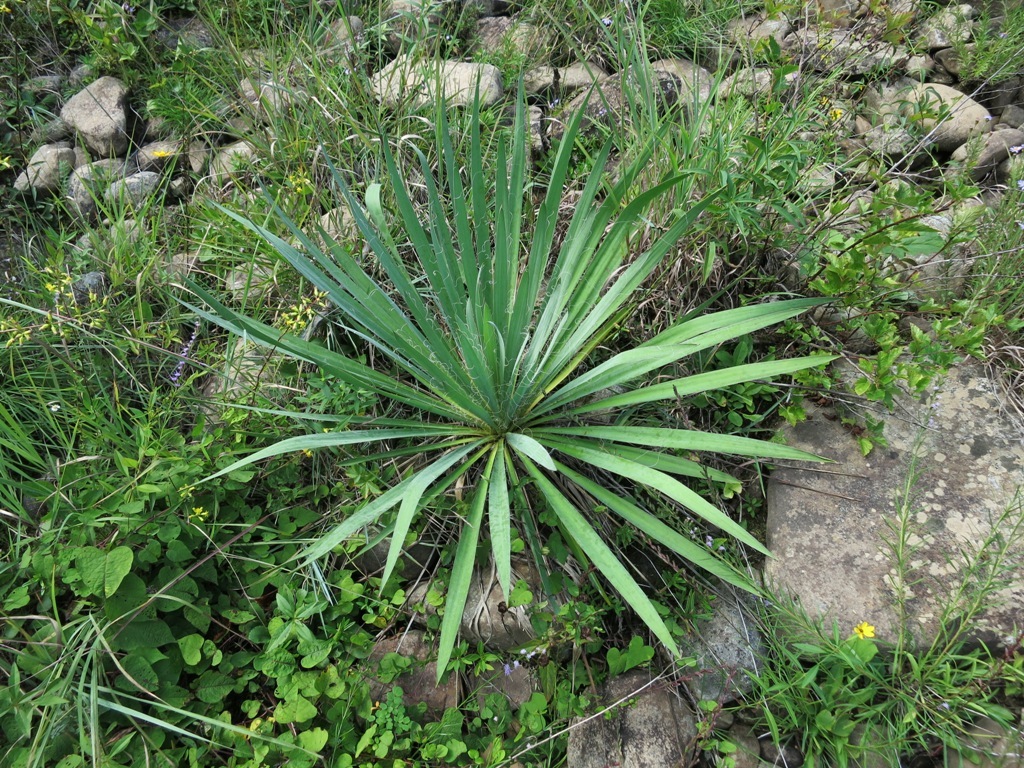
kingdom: Plantae
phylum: Tracheophyta
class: Liliopsida
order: Asparagales
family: Asparagaceae
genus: Yucca
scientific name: Yucca filamentosa
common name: Adam's-needle
